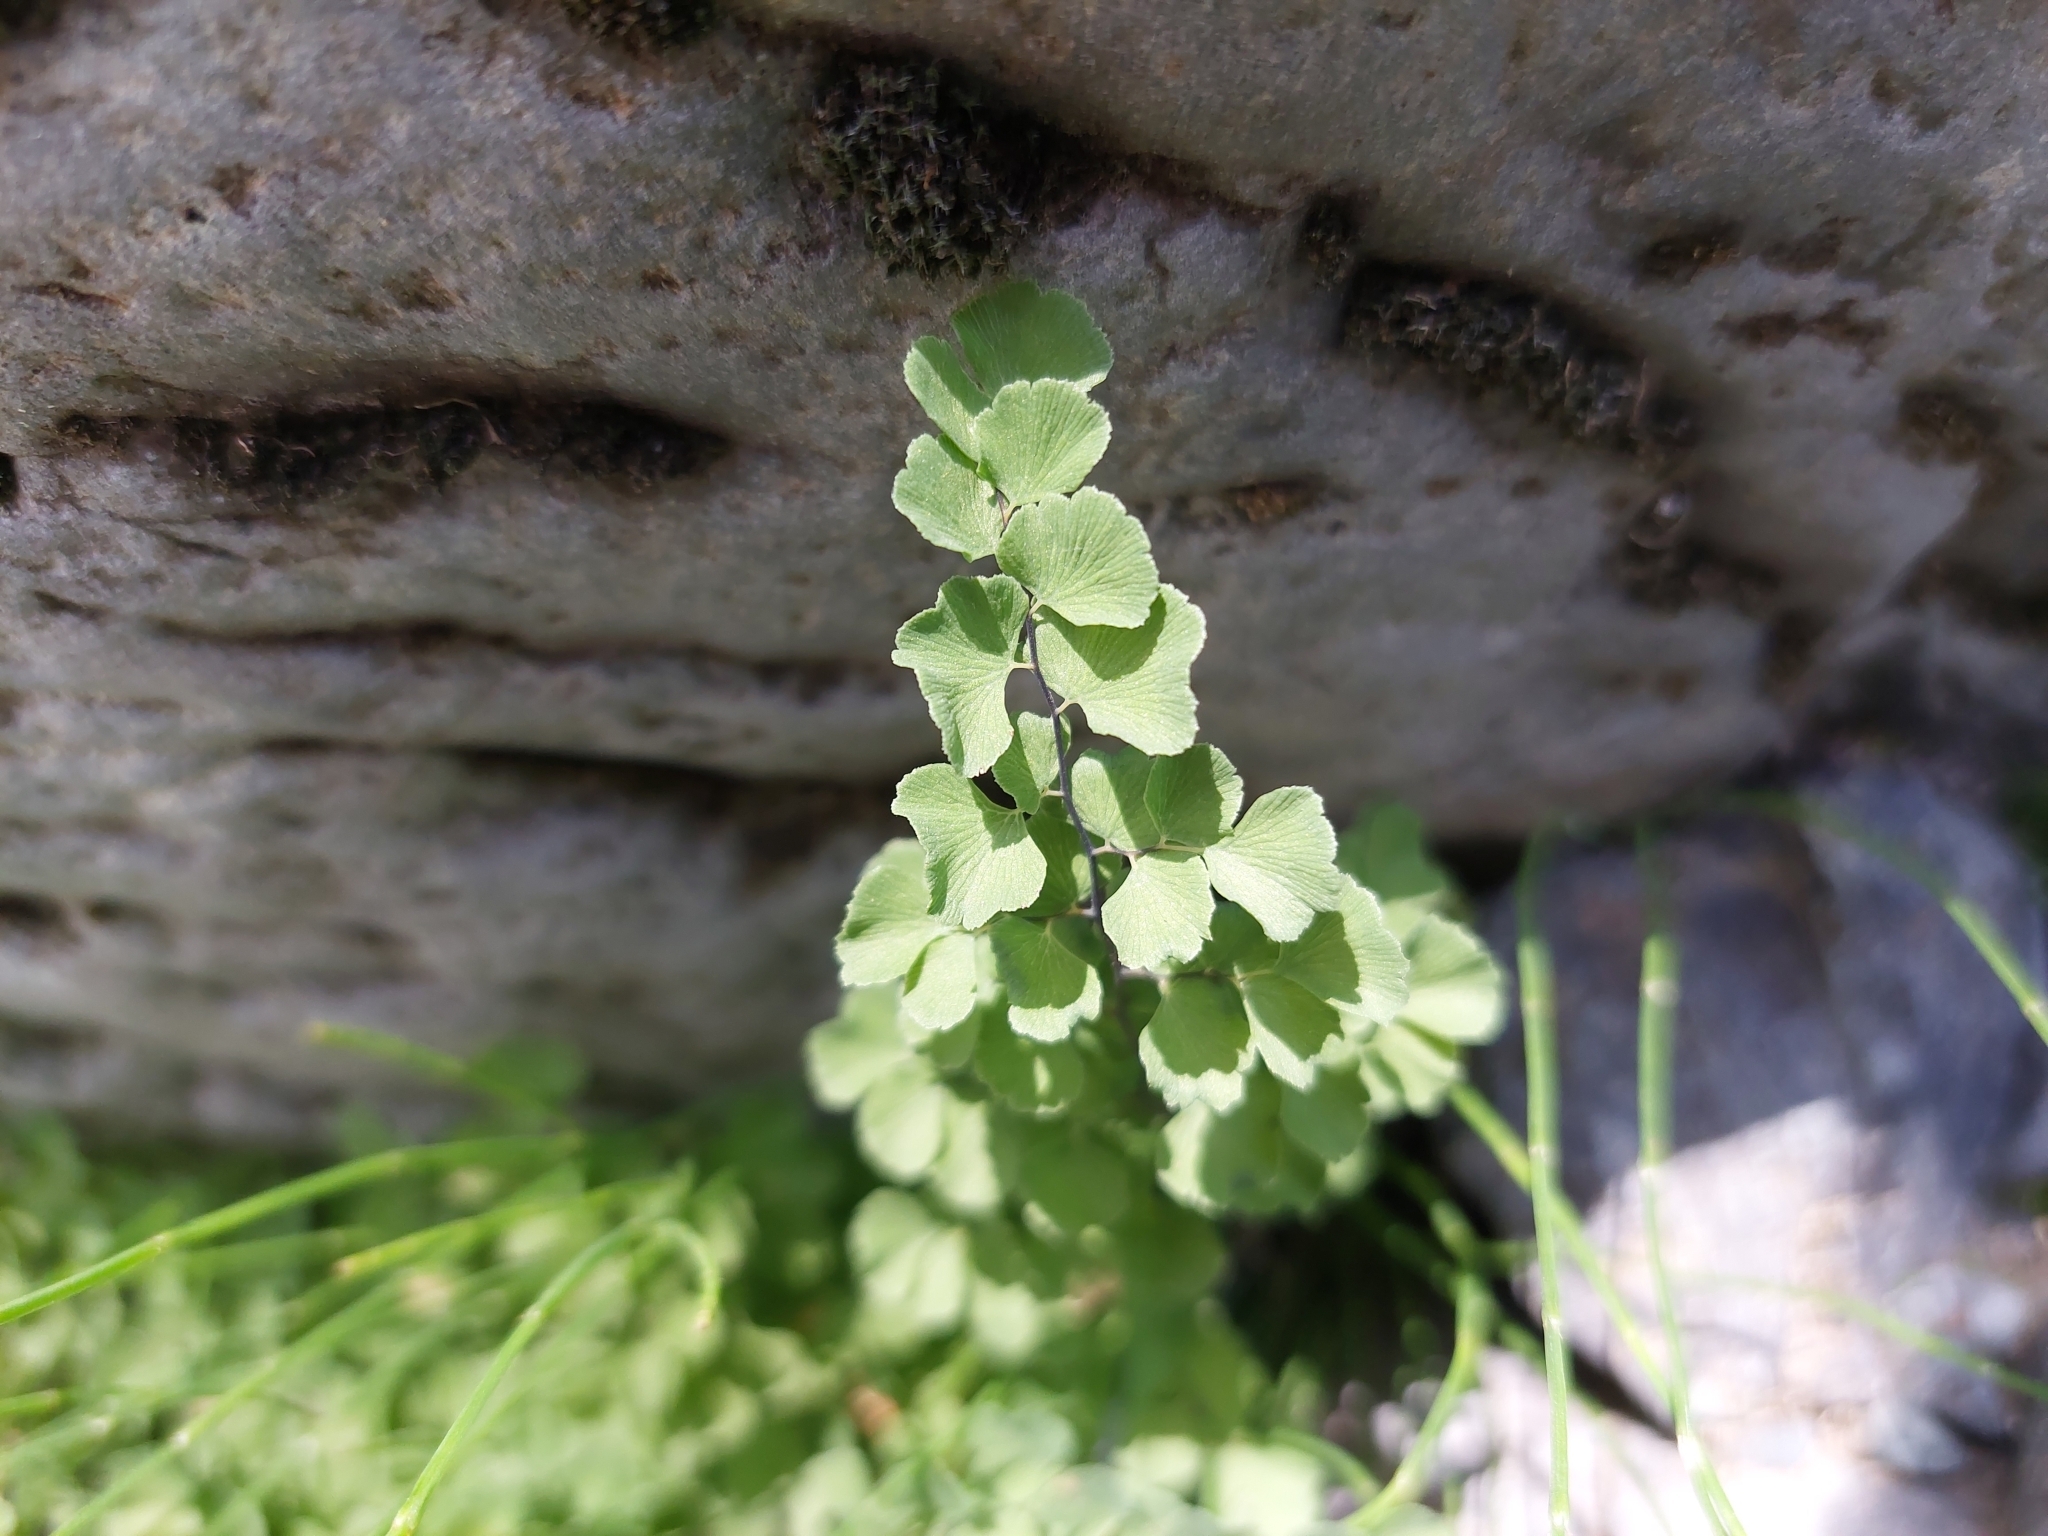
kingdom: Plantae
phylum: Tracheophyta
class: Polypodiopsida
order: Polypodiales
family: Pteridaceae
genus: Adiantum
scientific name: Adiantum chilense
